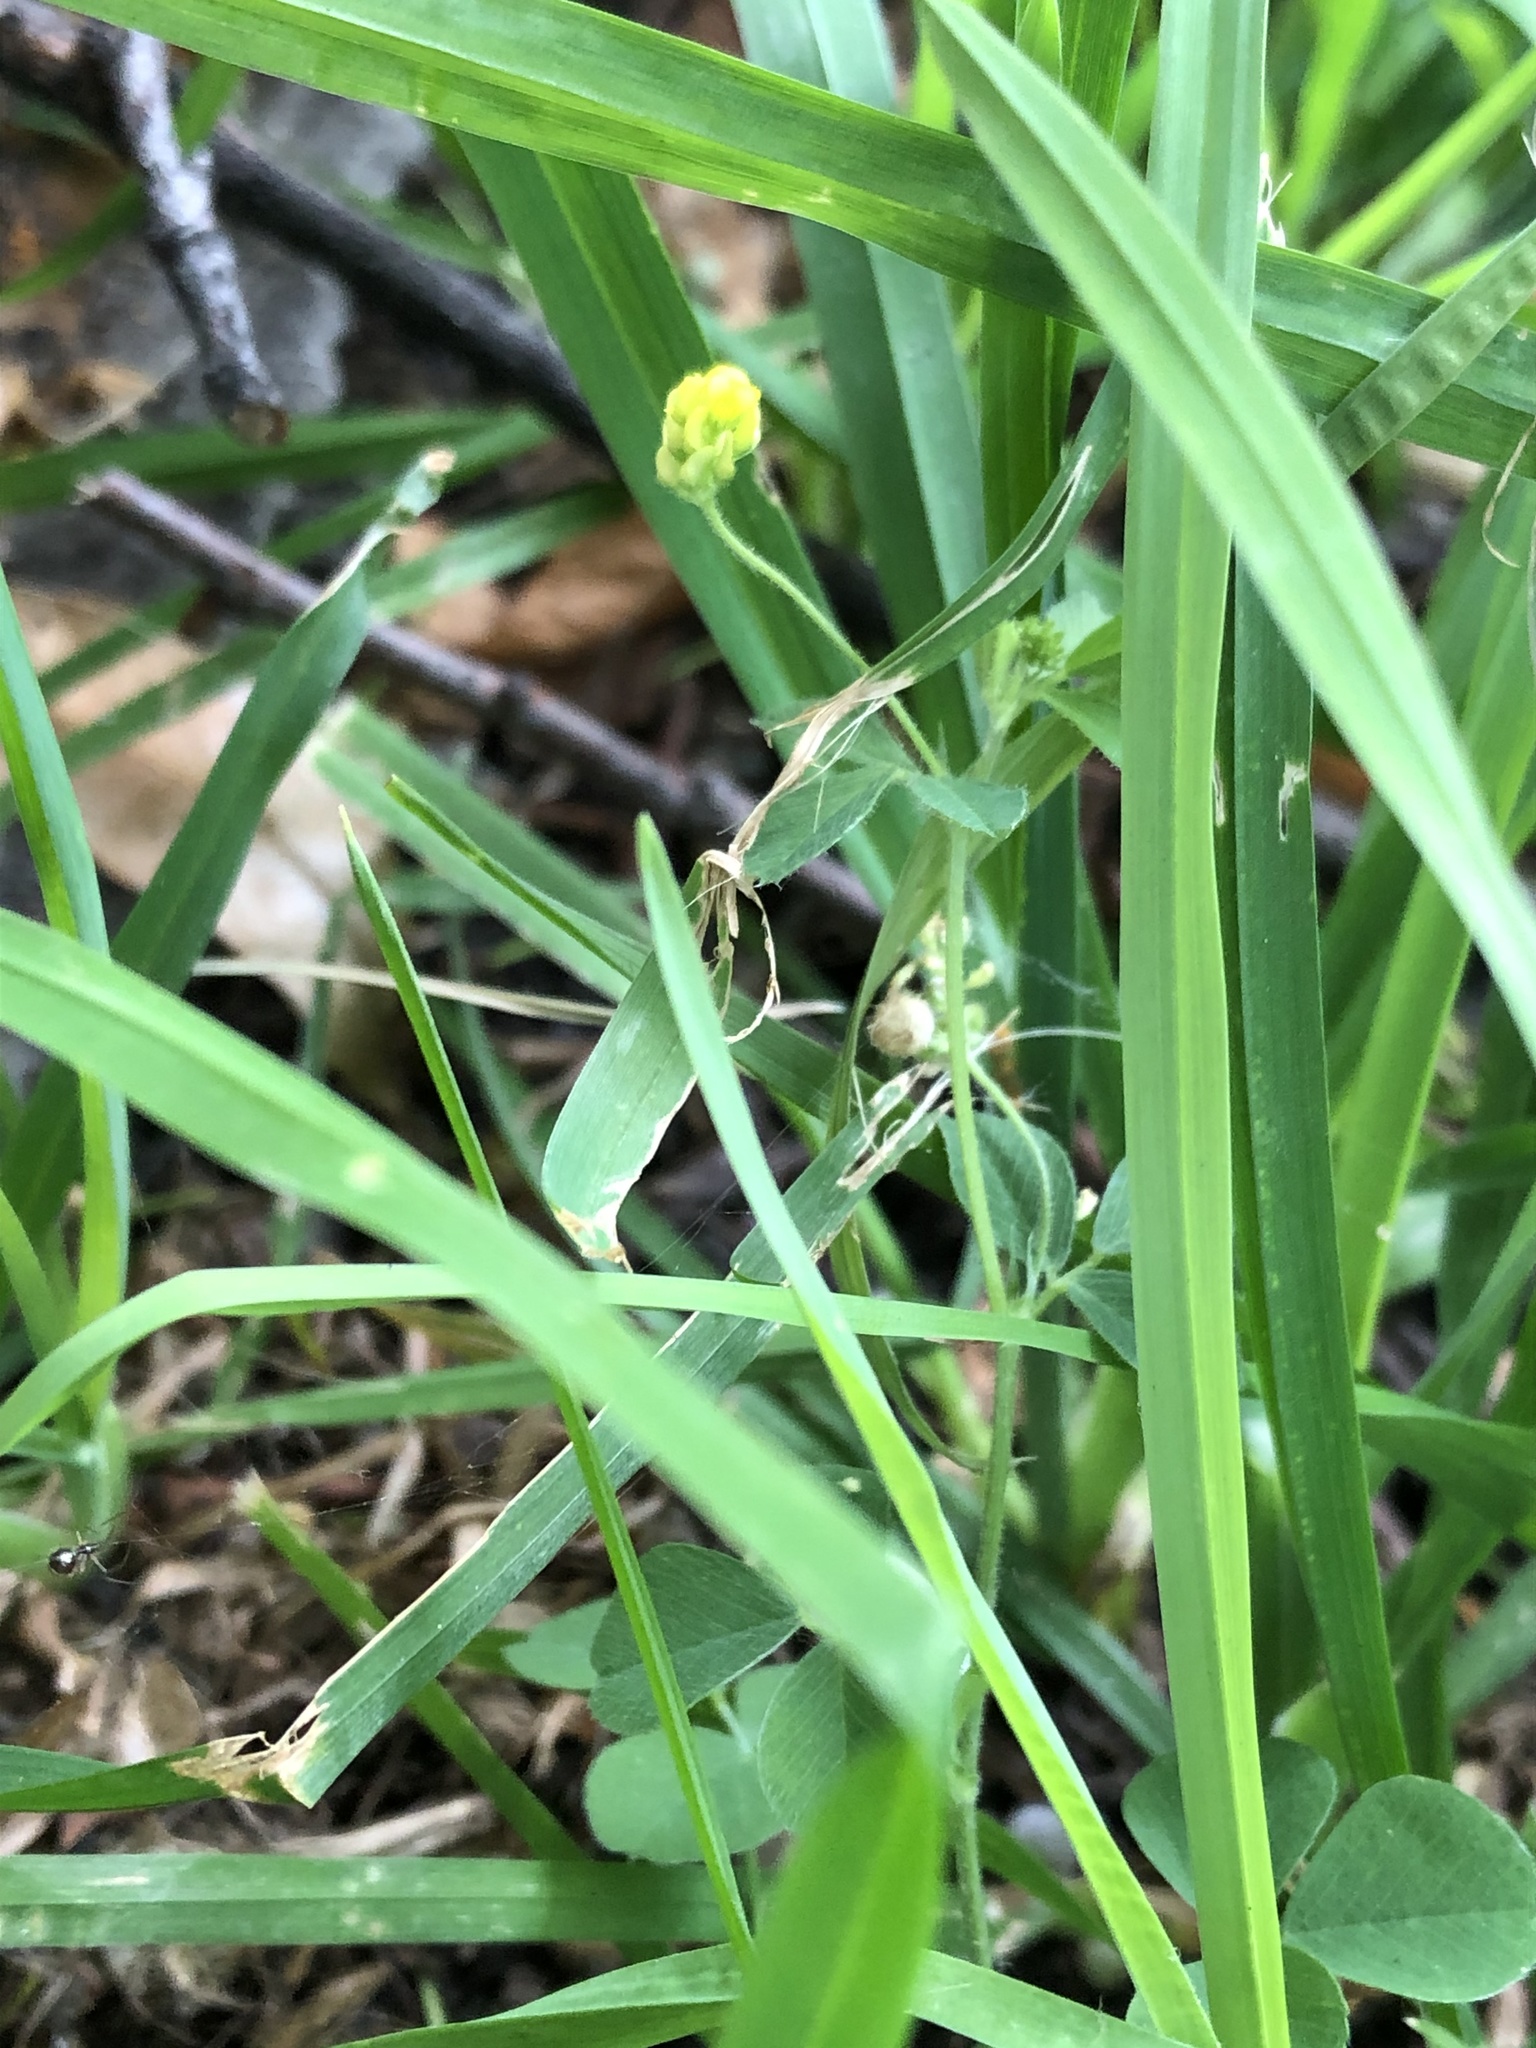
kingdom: Plantae
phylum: Tracheophyta
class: Magnoliopsida
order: Fabales
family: Fabaceae
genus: Medicago
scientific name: Medicago lupulina
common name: Black medick
